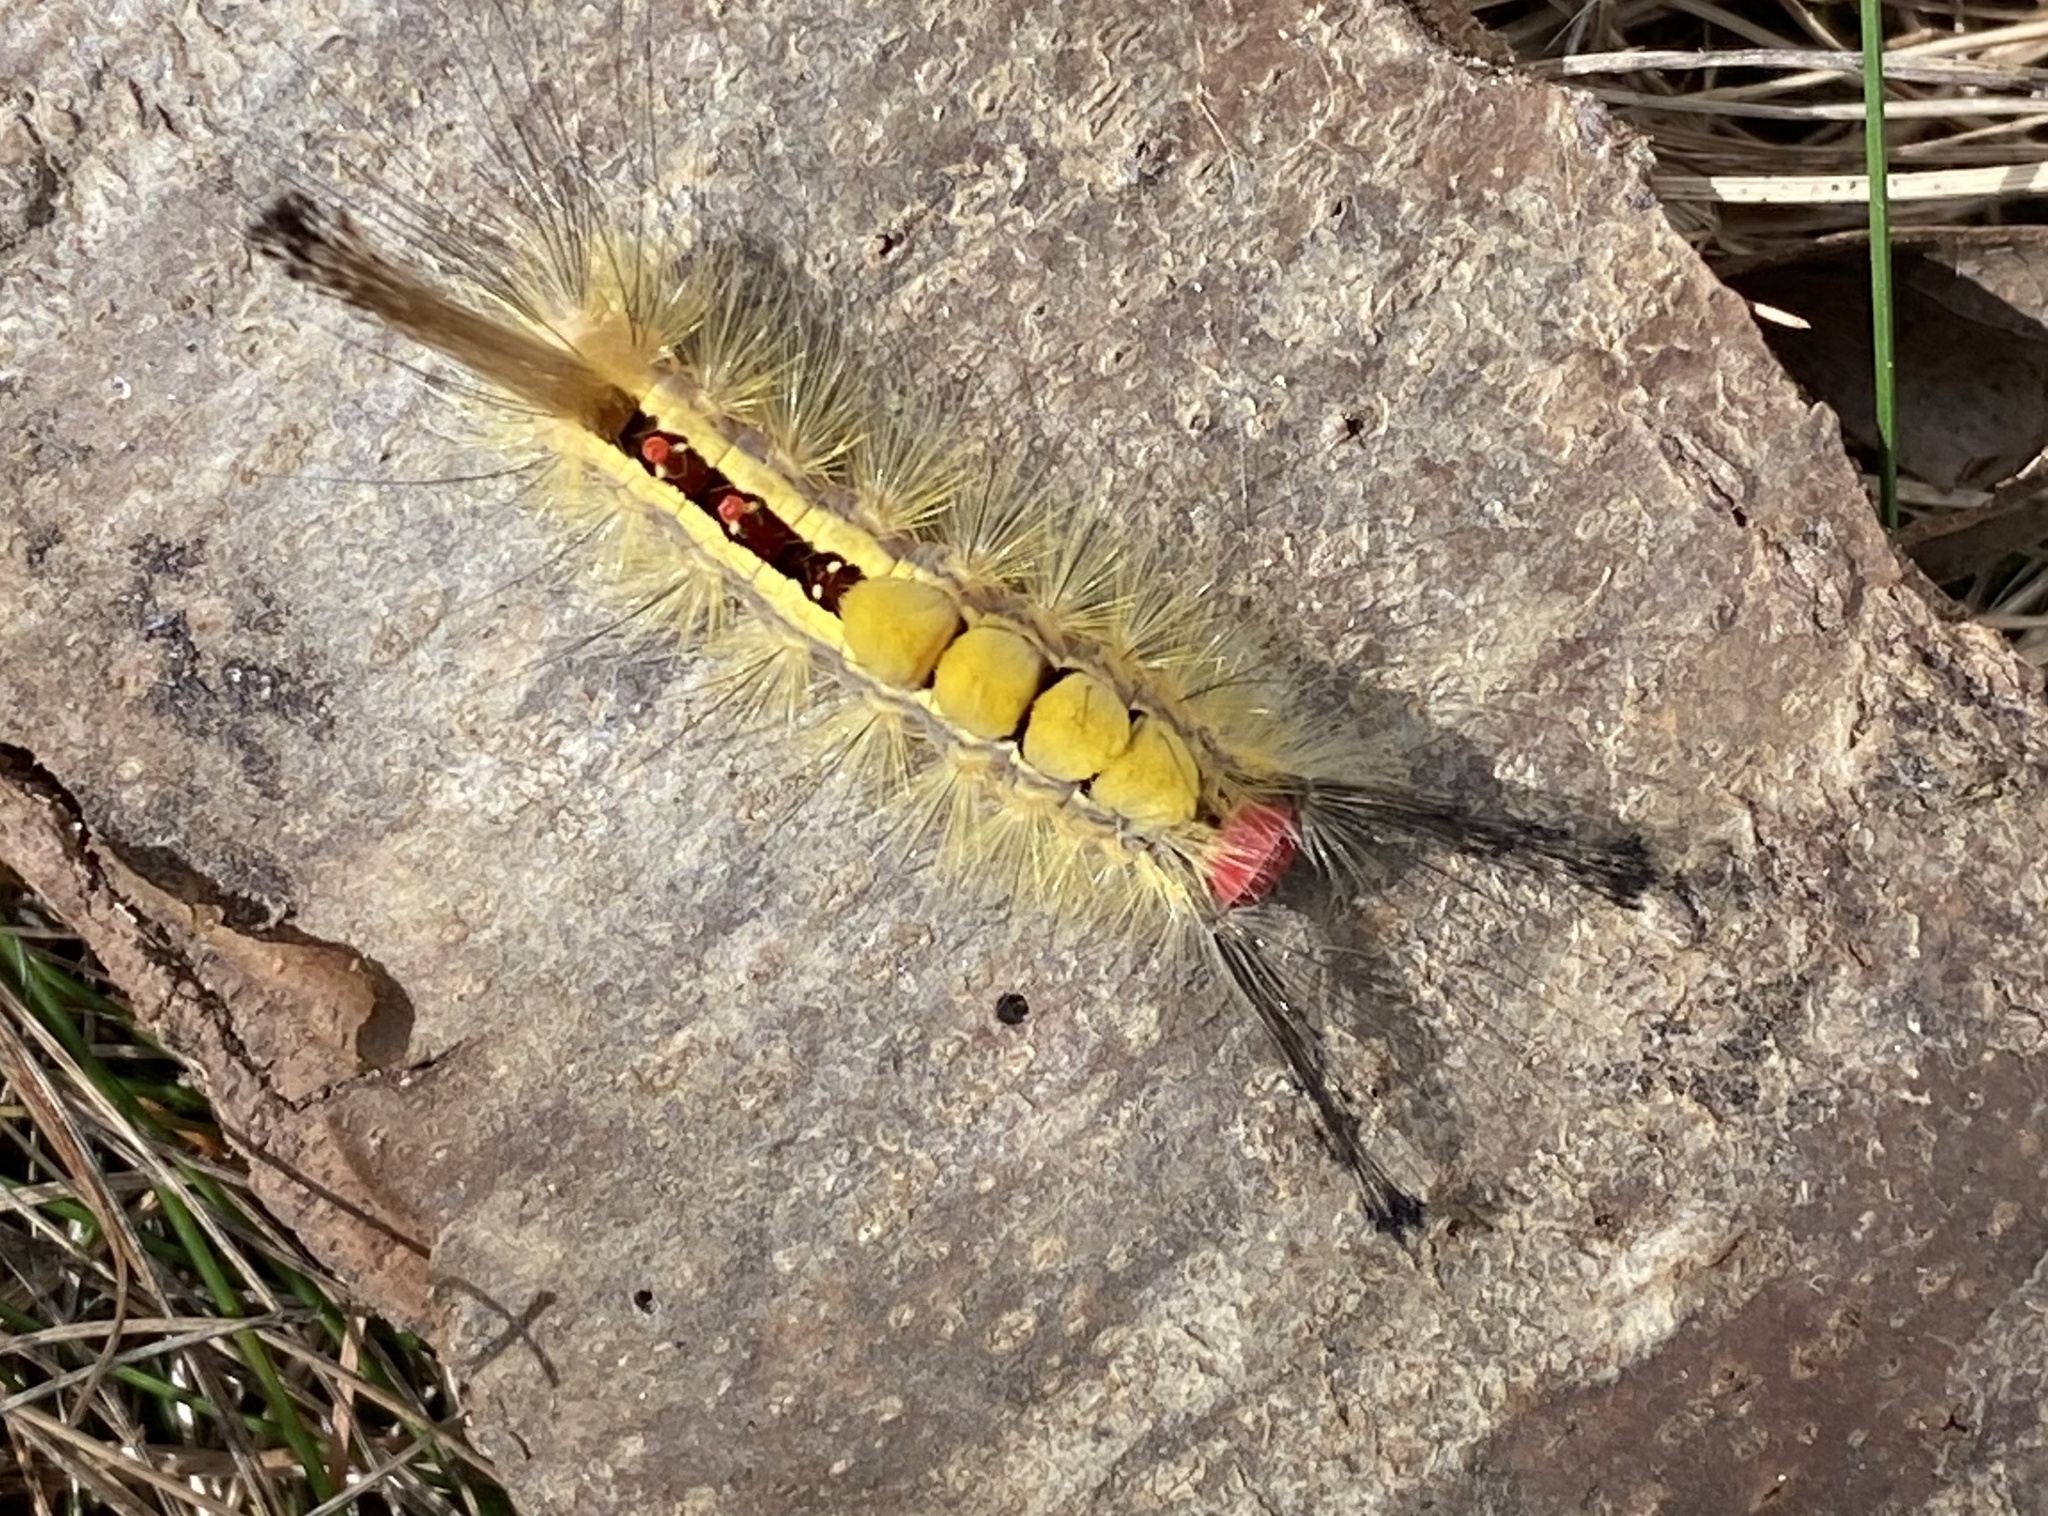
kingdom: Animalia
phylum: Arthropoda
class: Insecta
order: Lepidoptera
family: Erebidae
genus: Orgyia
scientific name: Orgyia leucostigma
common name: White-marked tussock moth
